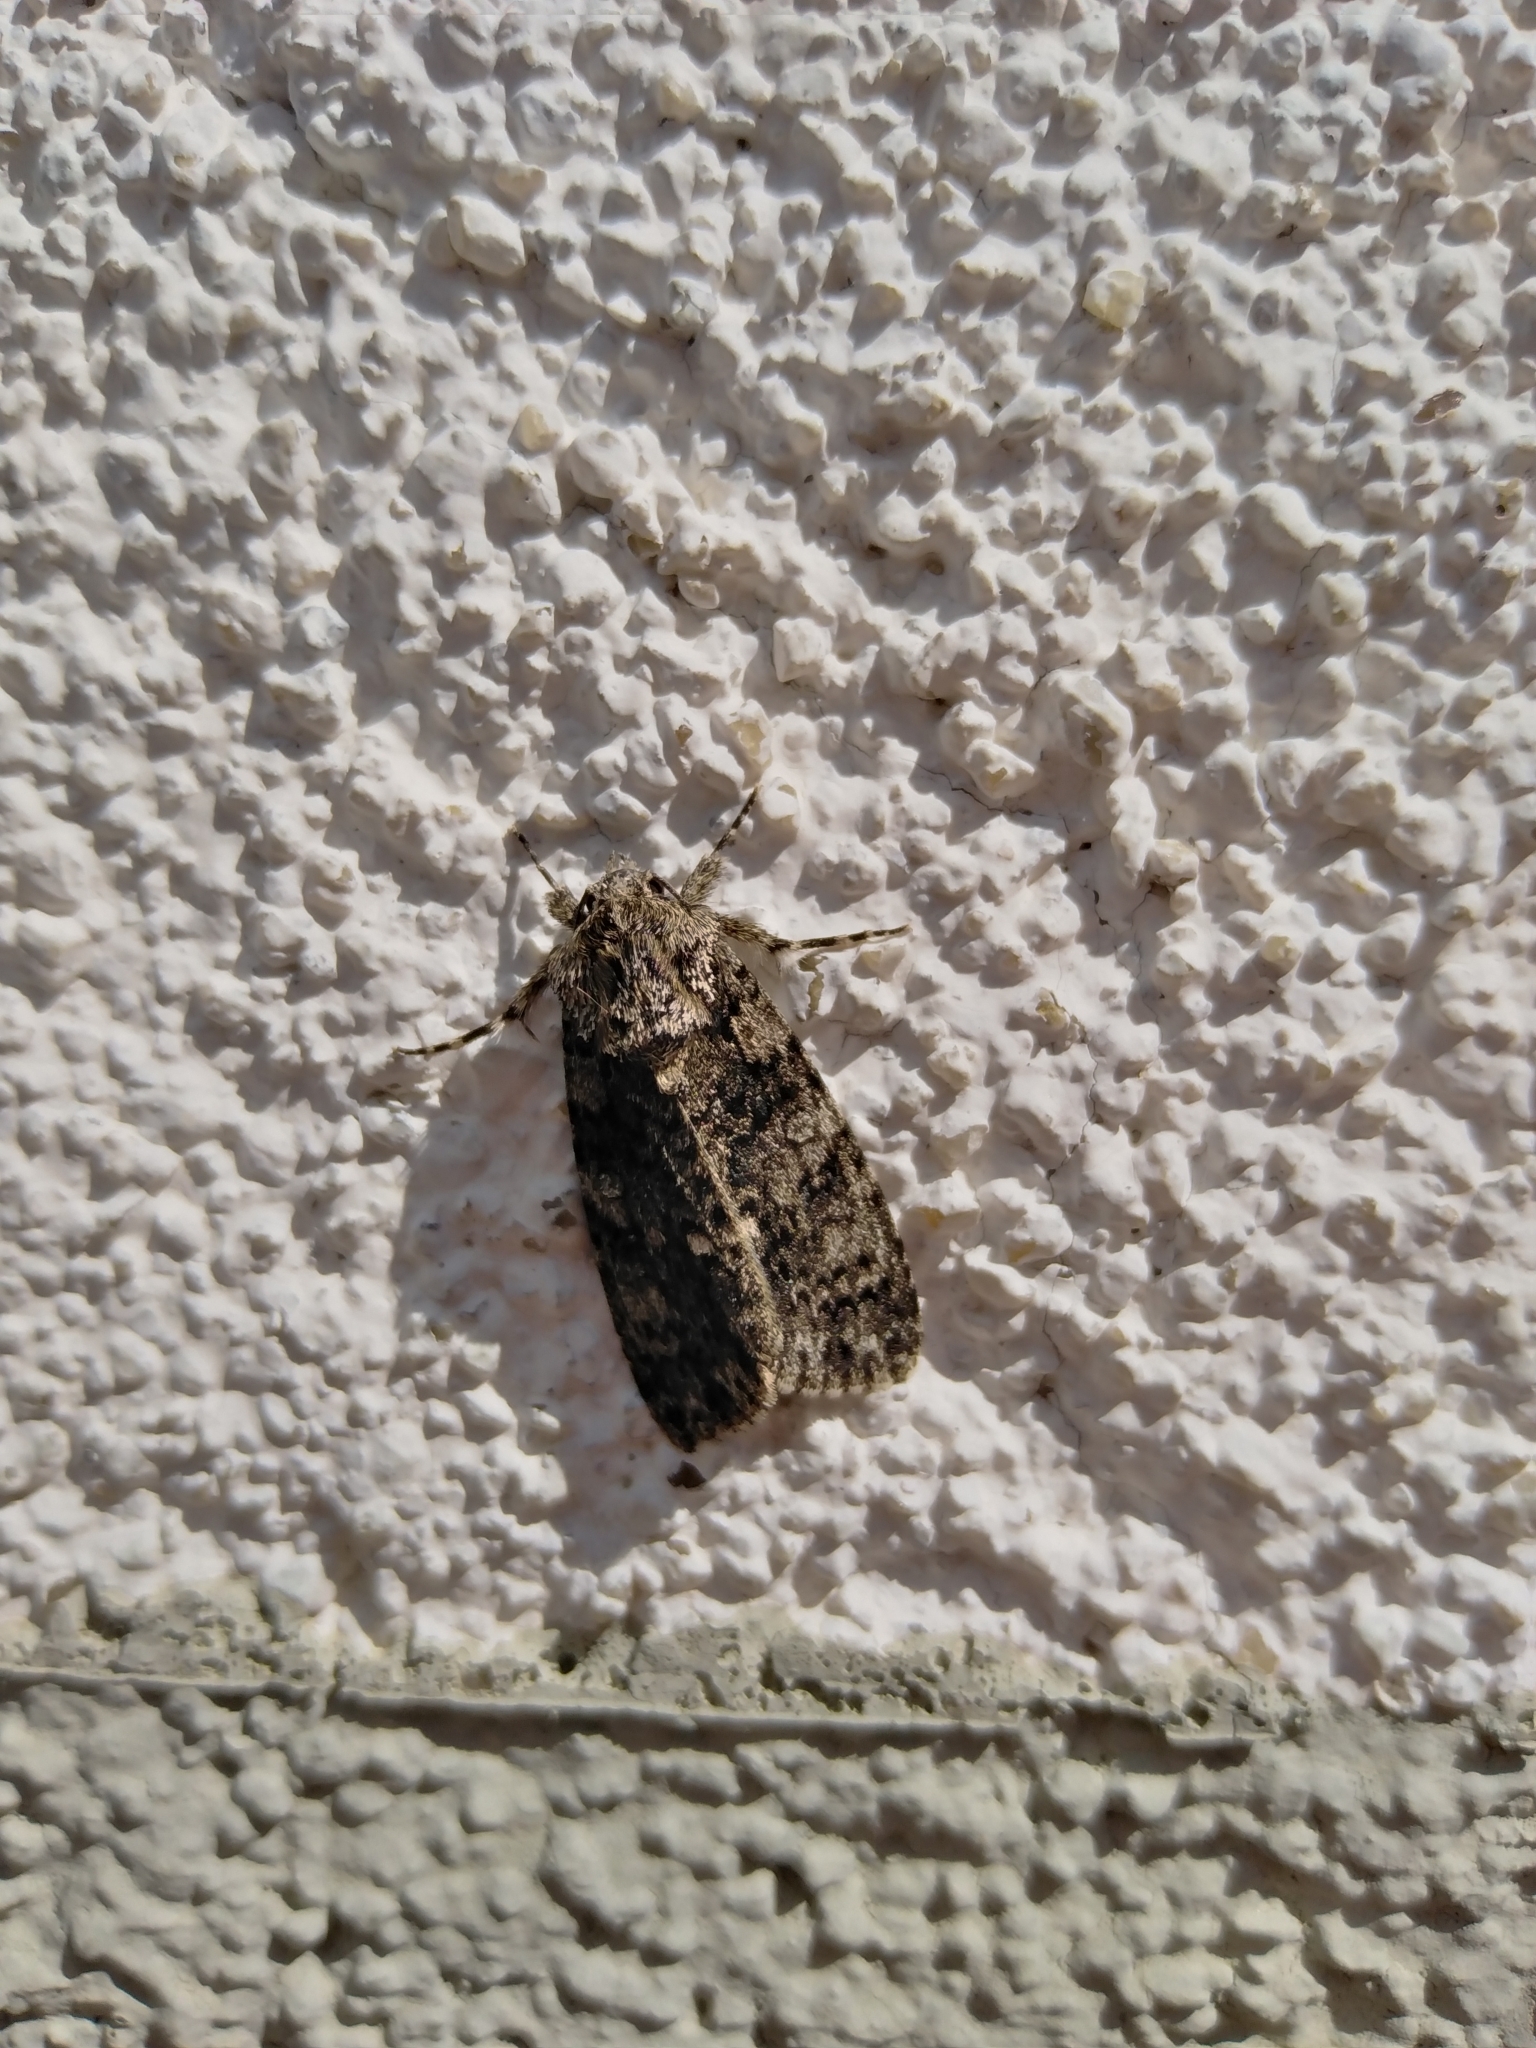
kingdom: Animalia
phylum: Arthropoda
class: Insecta
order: Lepidoptera
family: Noctuidae
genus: Acronicta
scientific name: Acronicta rumicis
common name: Knot grass
